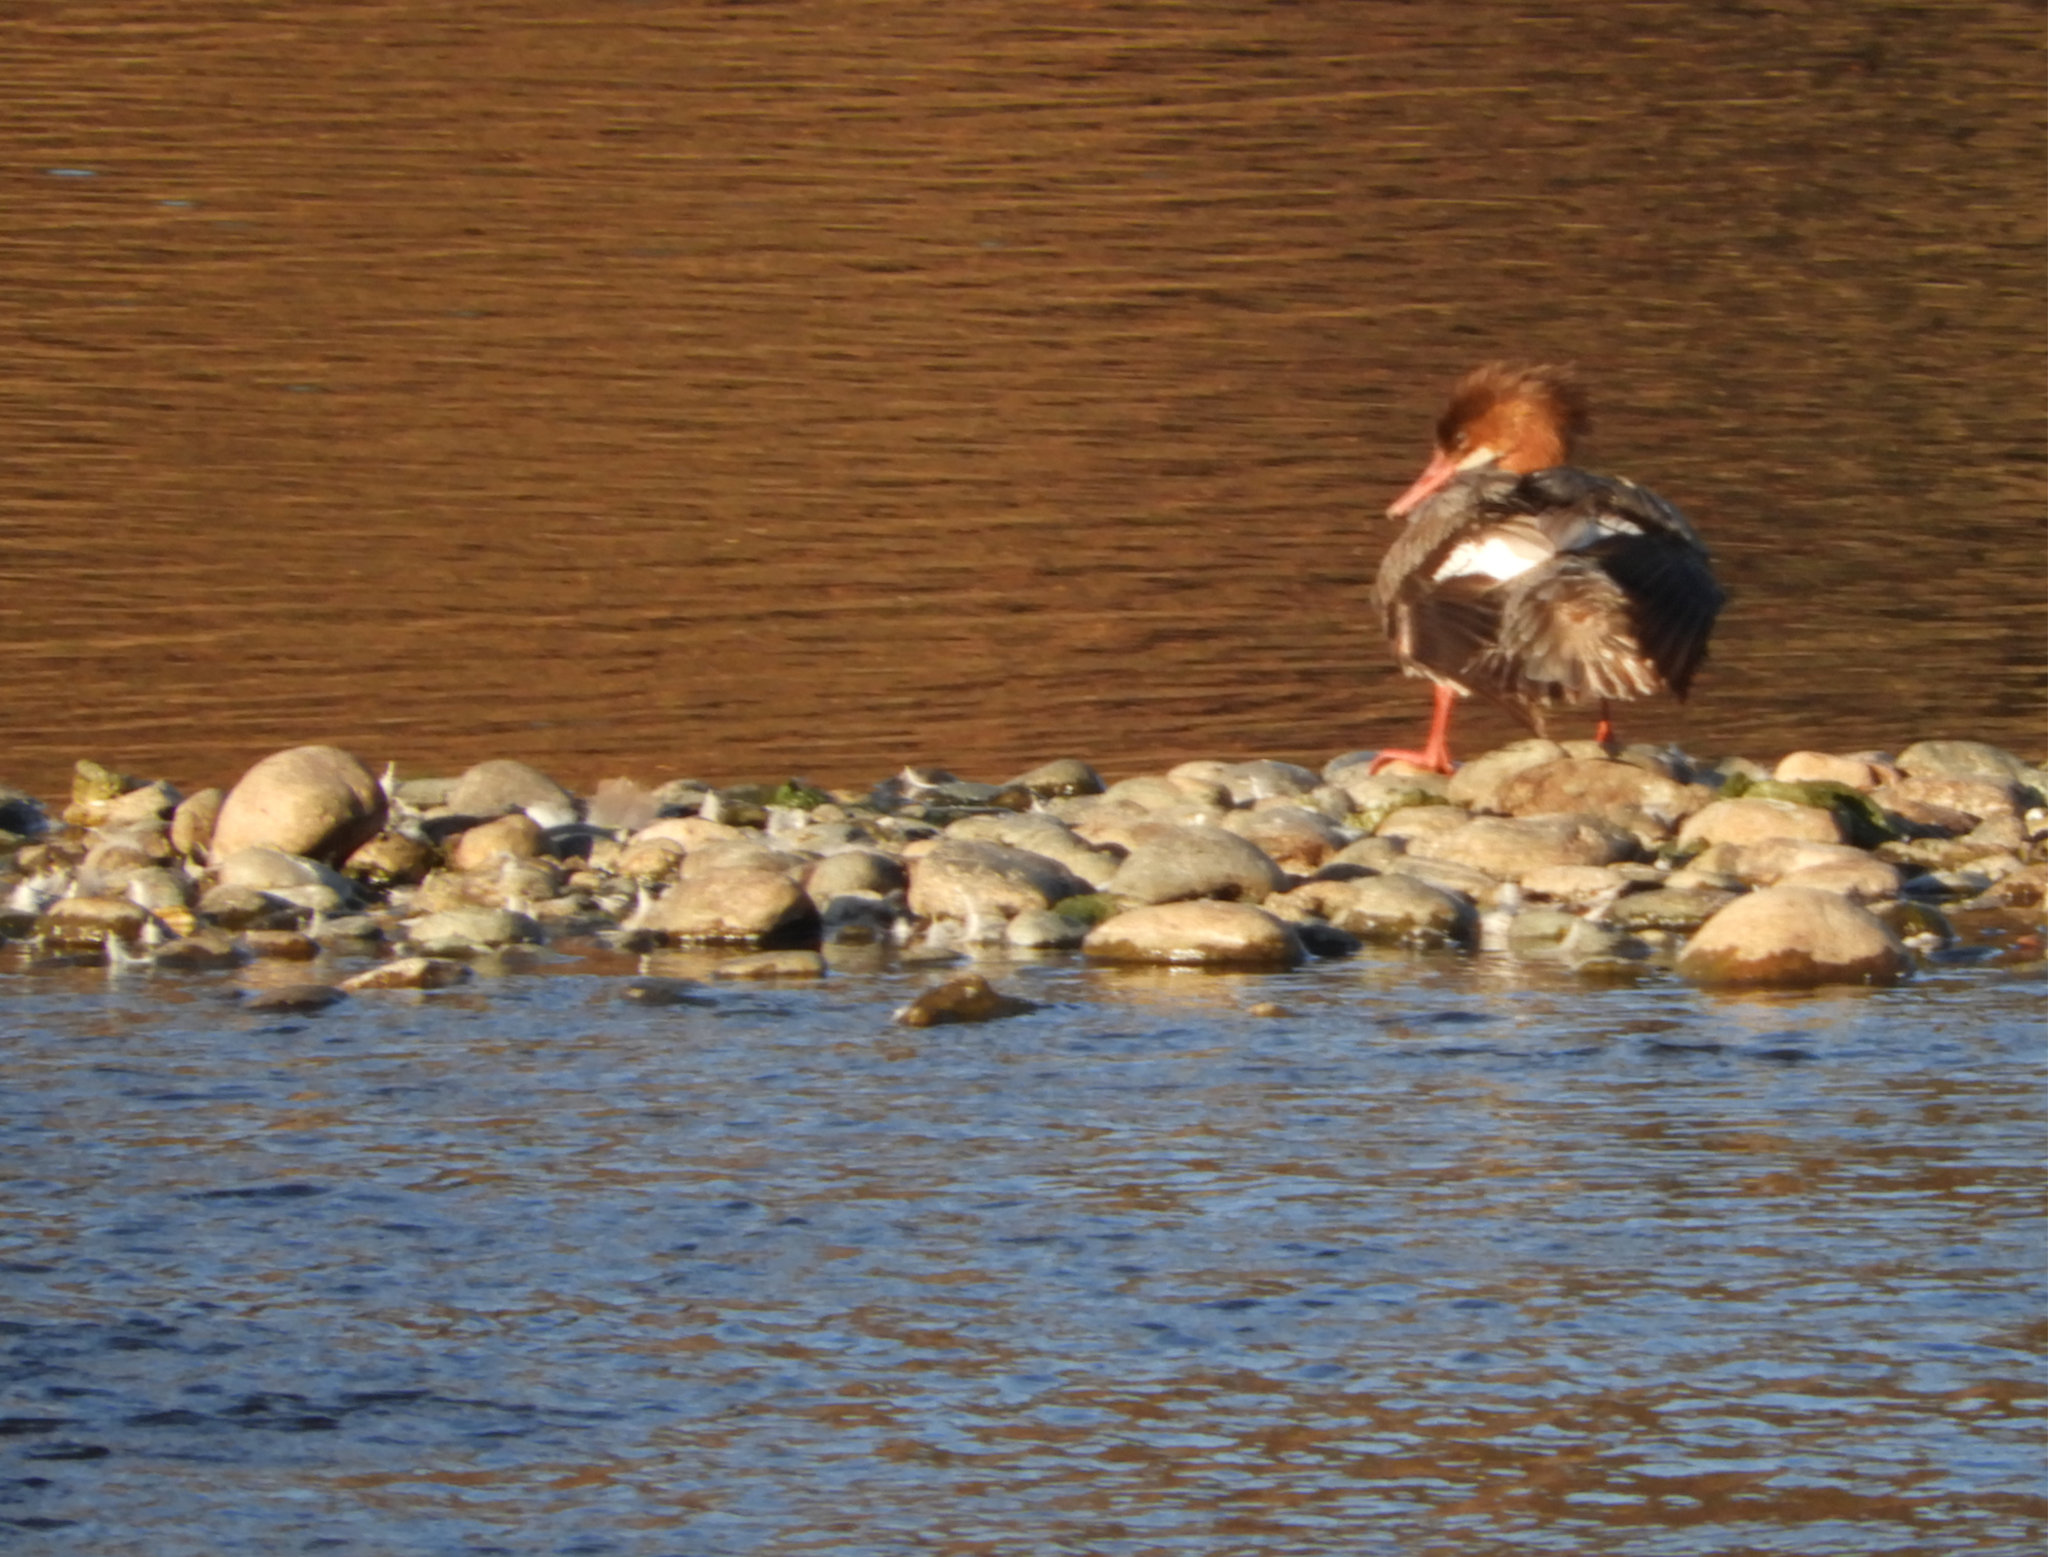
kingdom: Animalia
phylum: Chordata
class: Aves
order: Anseriformes
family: Anatidae
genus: Mergus
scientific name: Mergus merganser
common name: Common merganser
